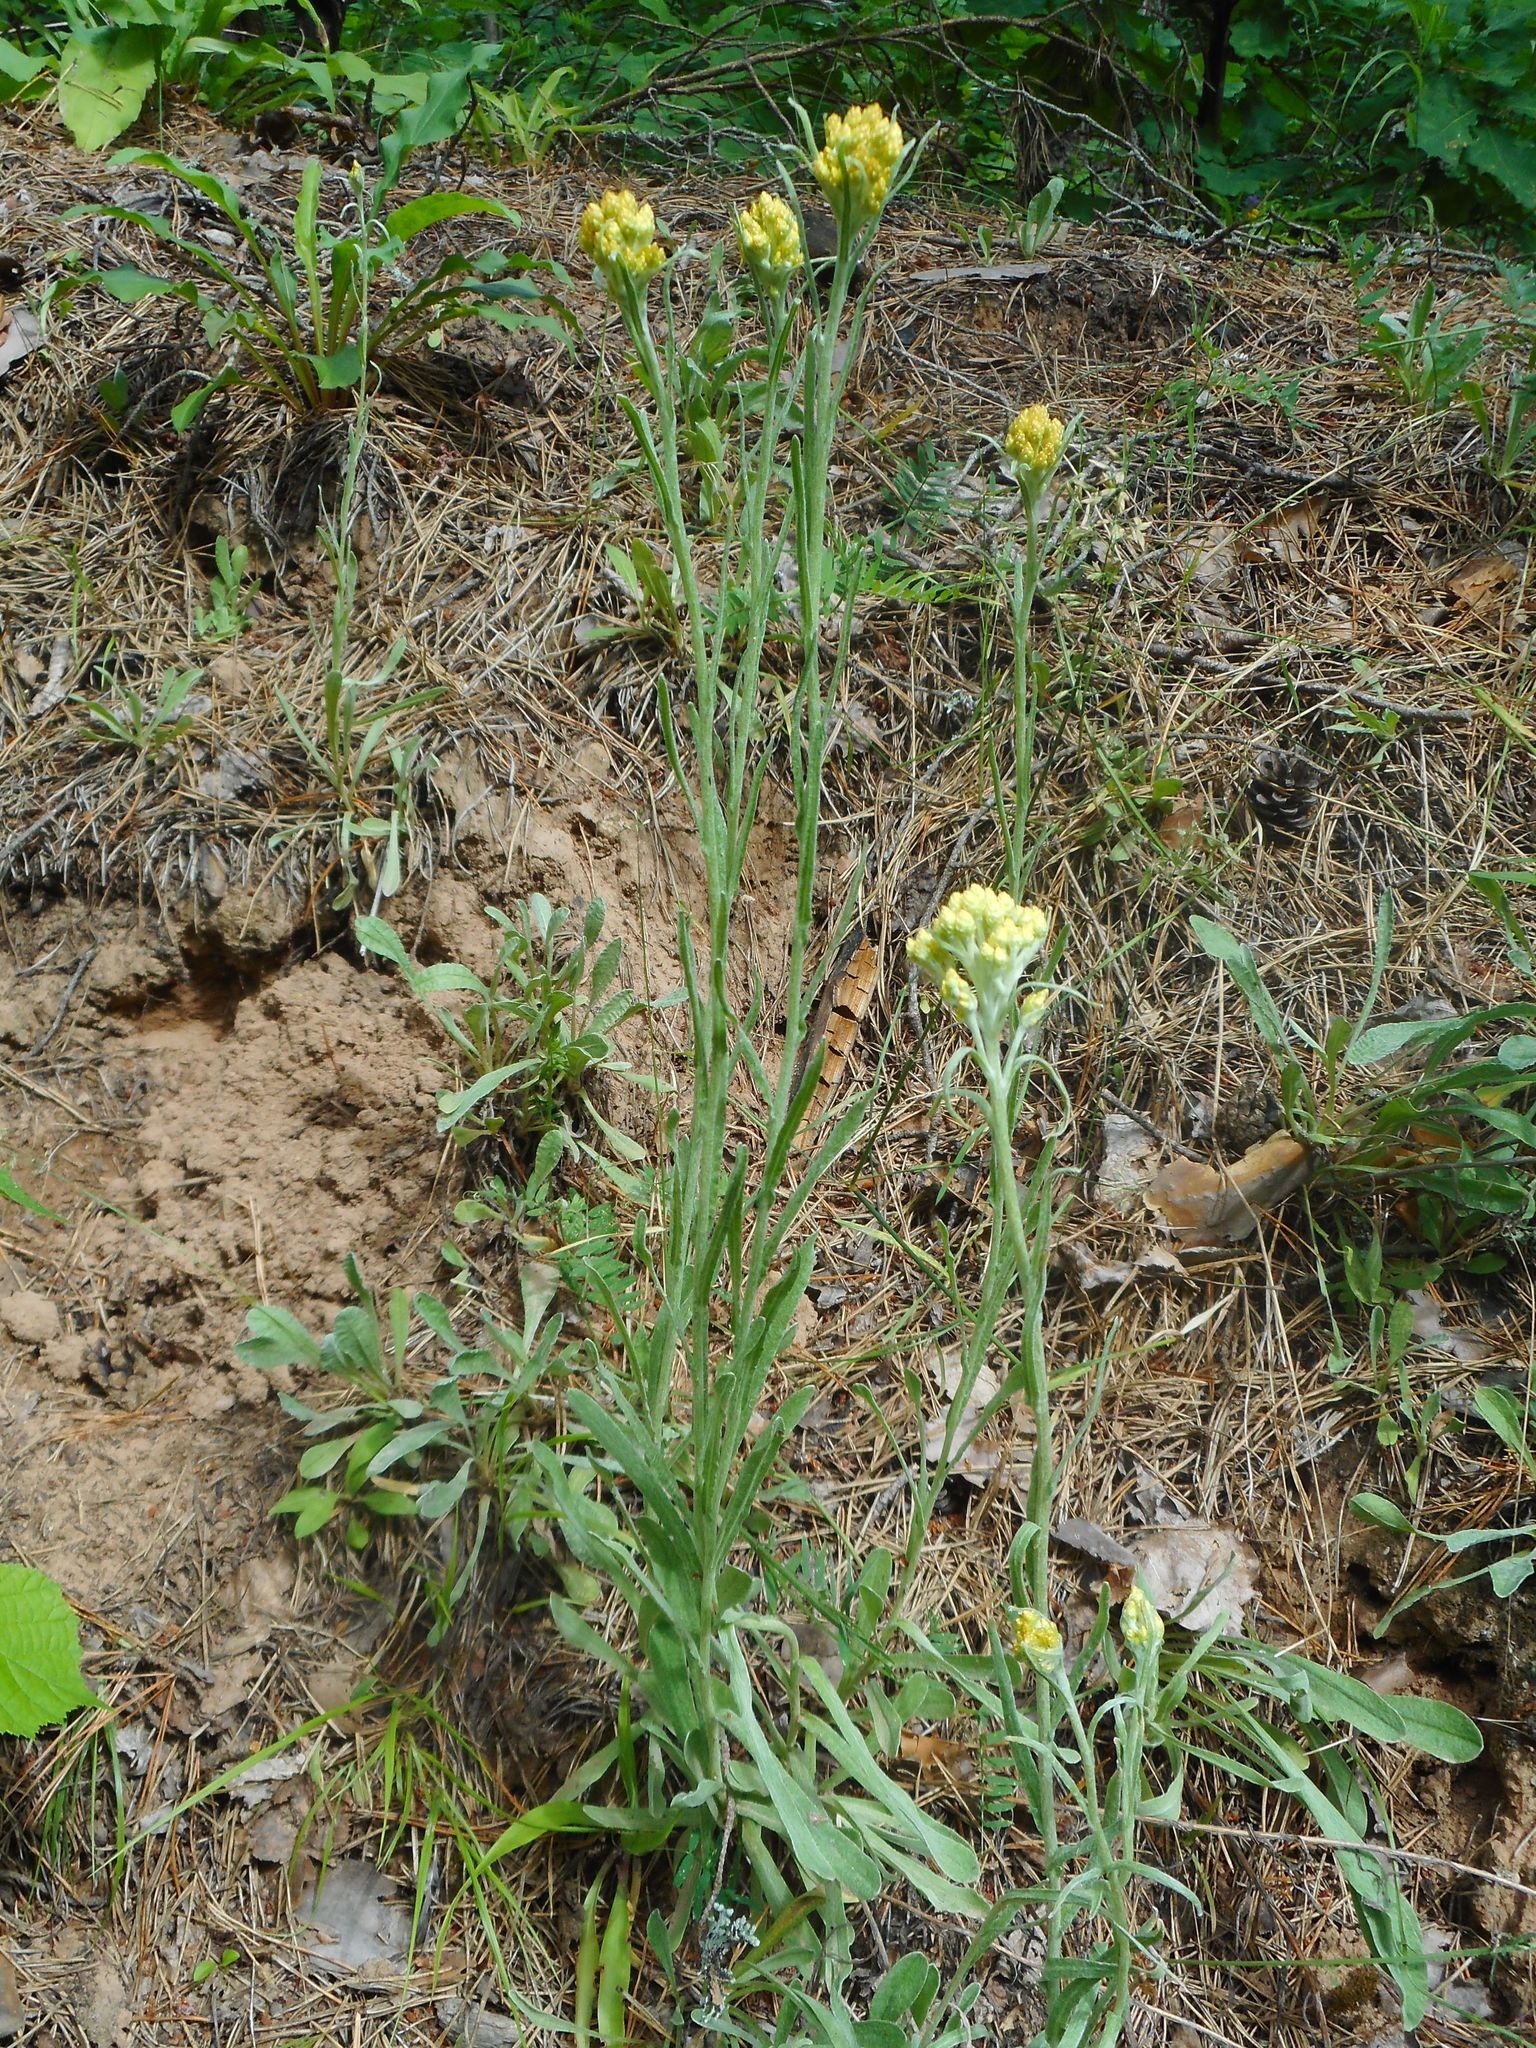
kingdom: Plantae
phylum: Tracheophyta
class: Magnoliopsida
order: Asterales
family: Asteraceae
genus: Helichrysum
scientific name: Helichrysum arenarium
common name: Strawflower
